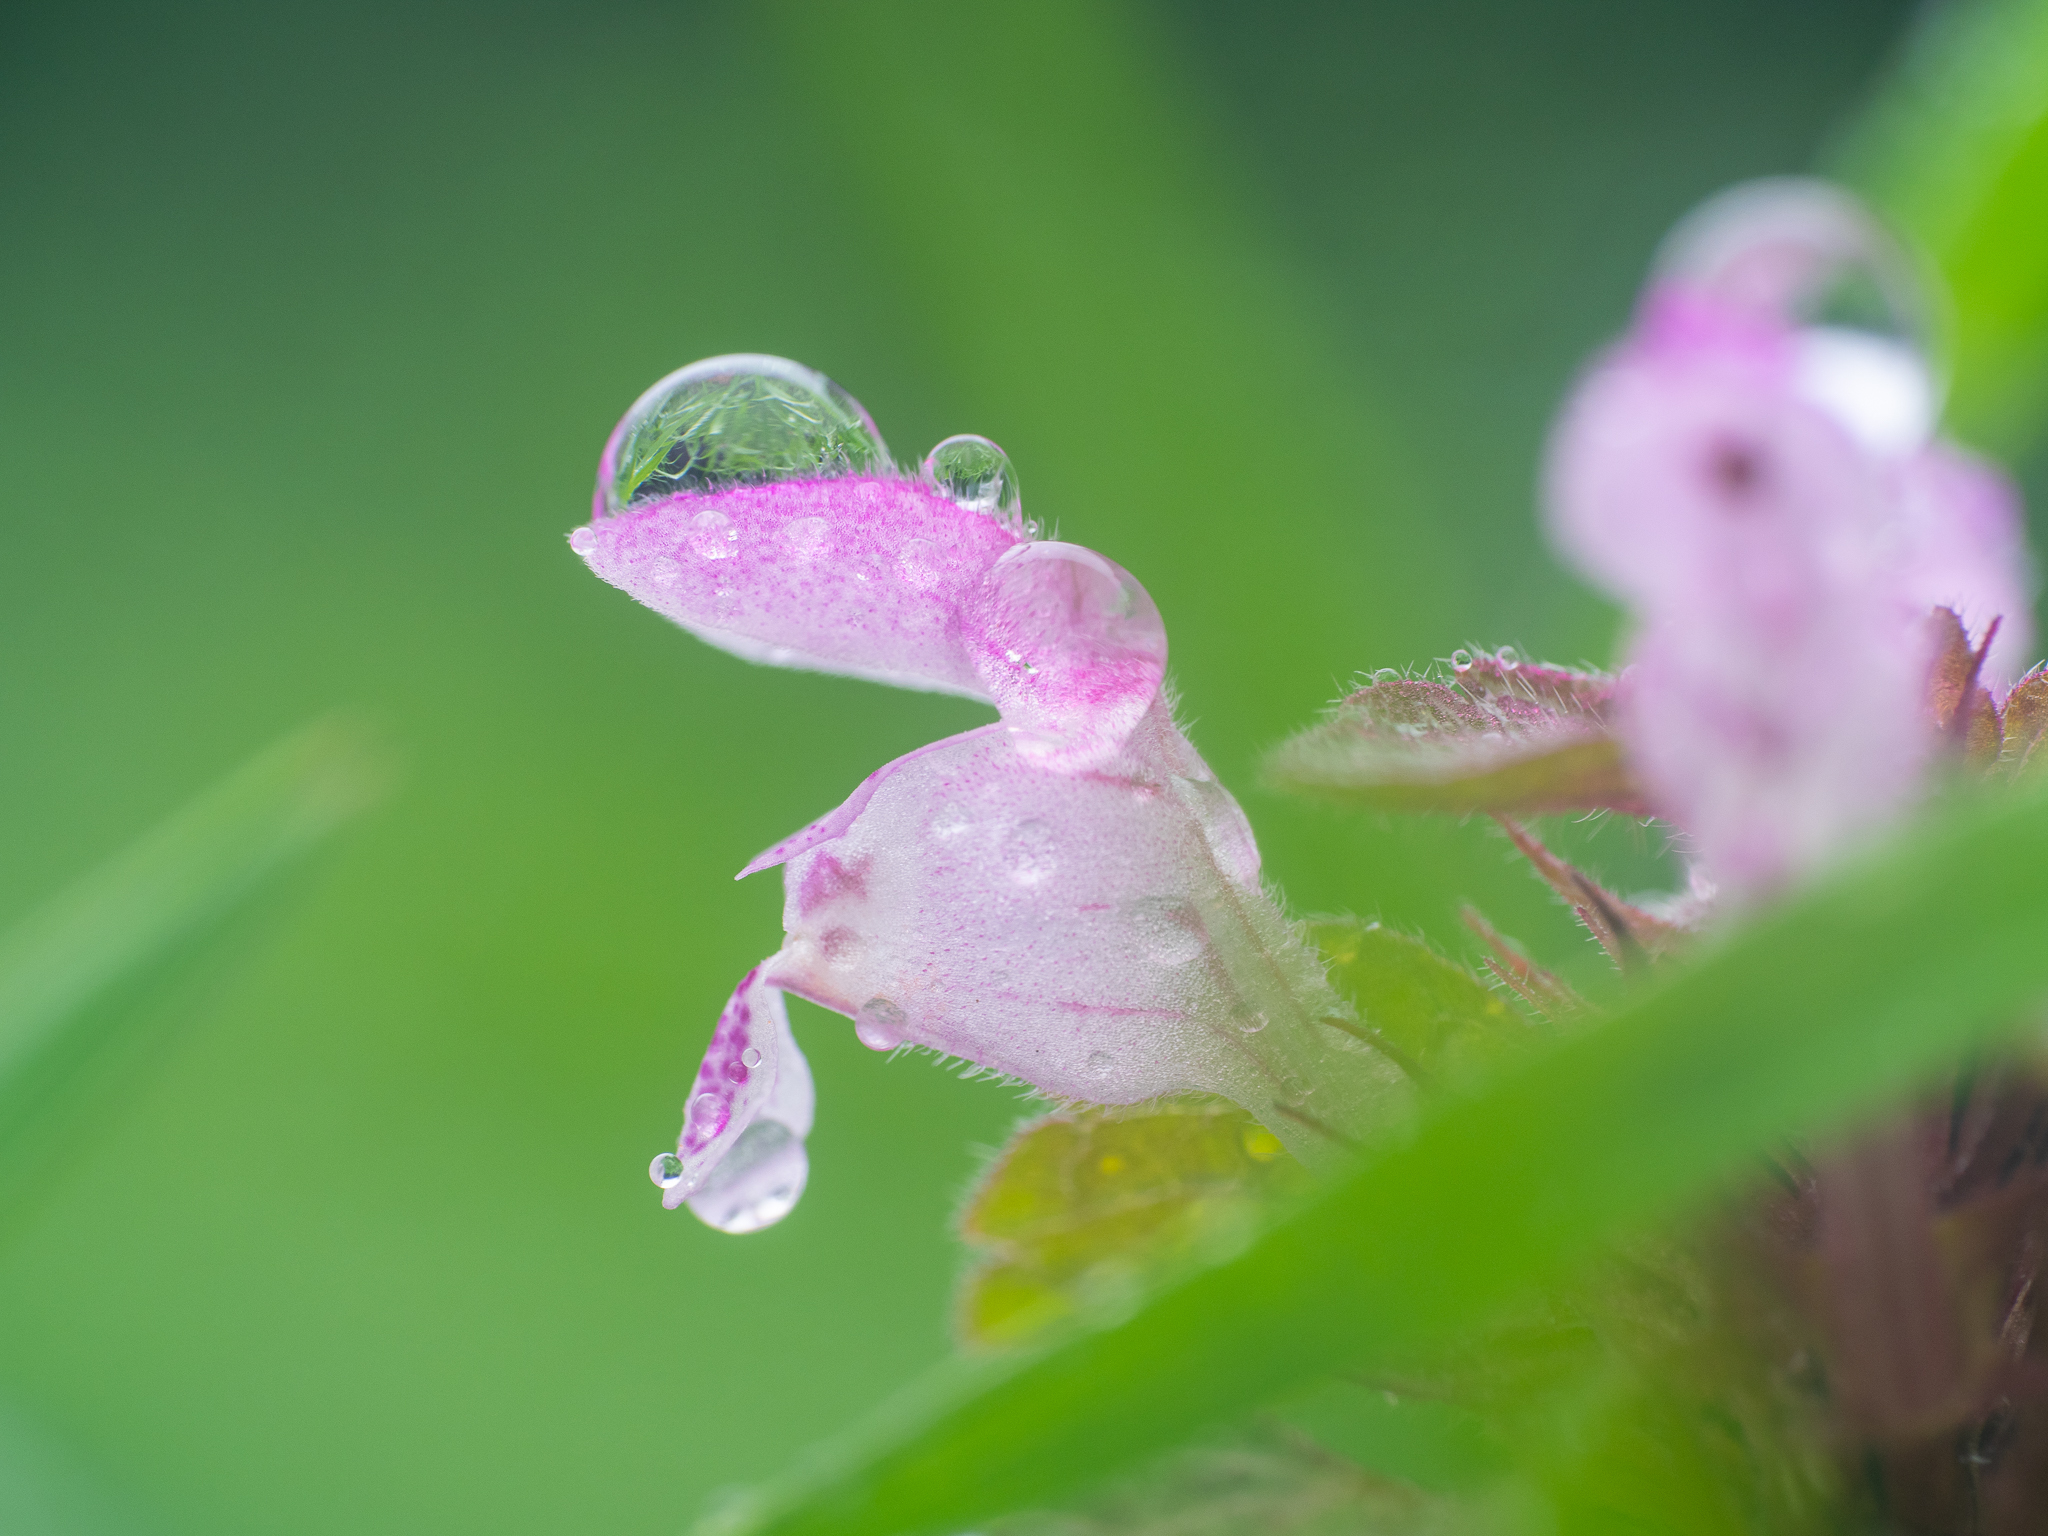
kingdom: Plantae
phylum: Tracheophyta
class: Magnoliopsida
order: Lamiales
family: Lamiaceae
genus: Lamium
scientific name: Lamium purpureum
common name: Red dead-nettle
